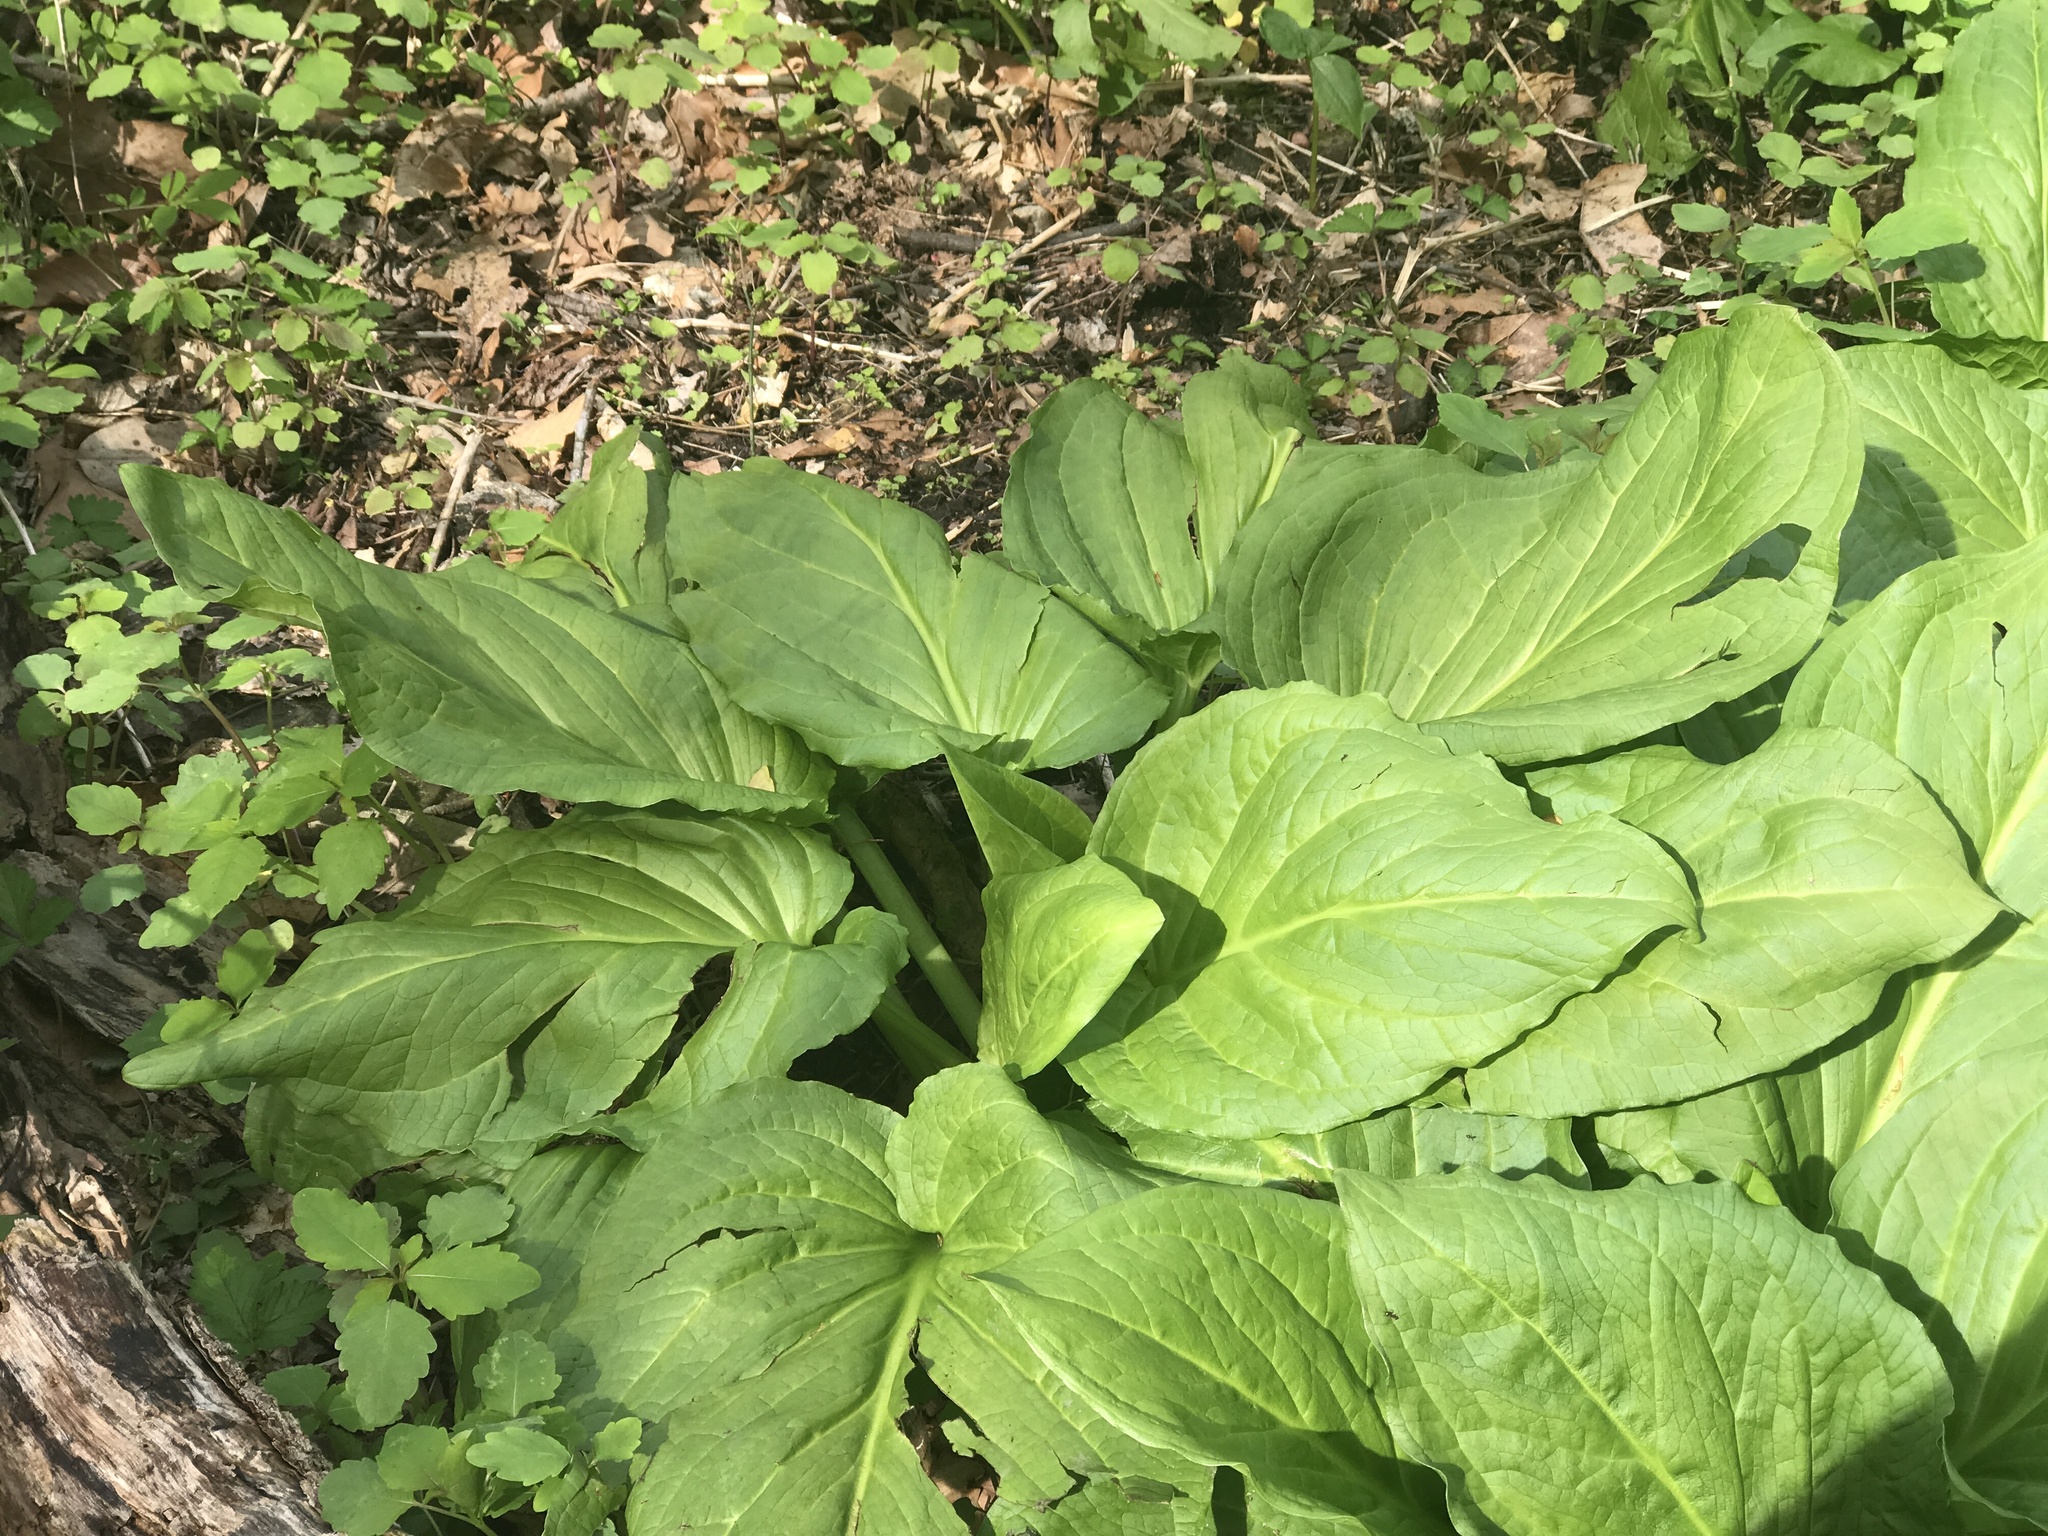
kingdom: Plantae
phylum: Tracheophyta
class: Liliopsida
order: Alismatales
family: Araceae
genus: Symplocarpus
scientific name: Symplocarpus foetidus
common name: Eastern skunk cabbage
